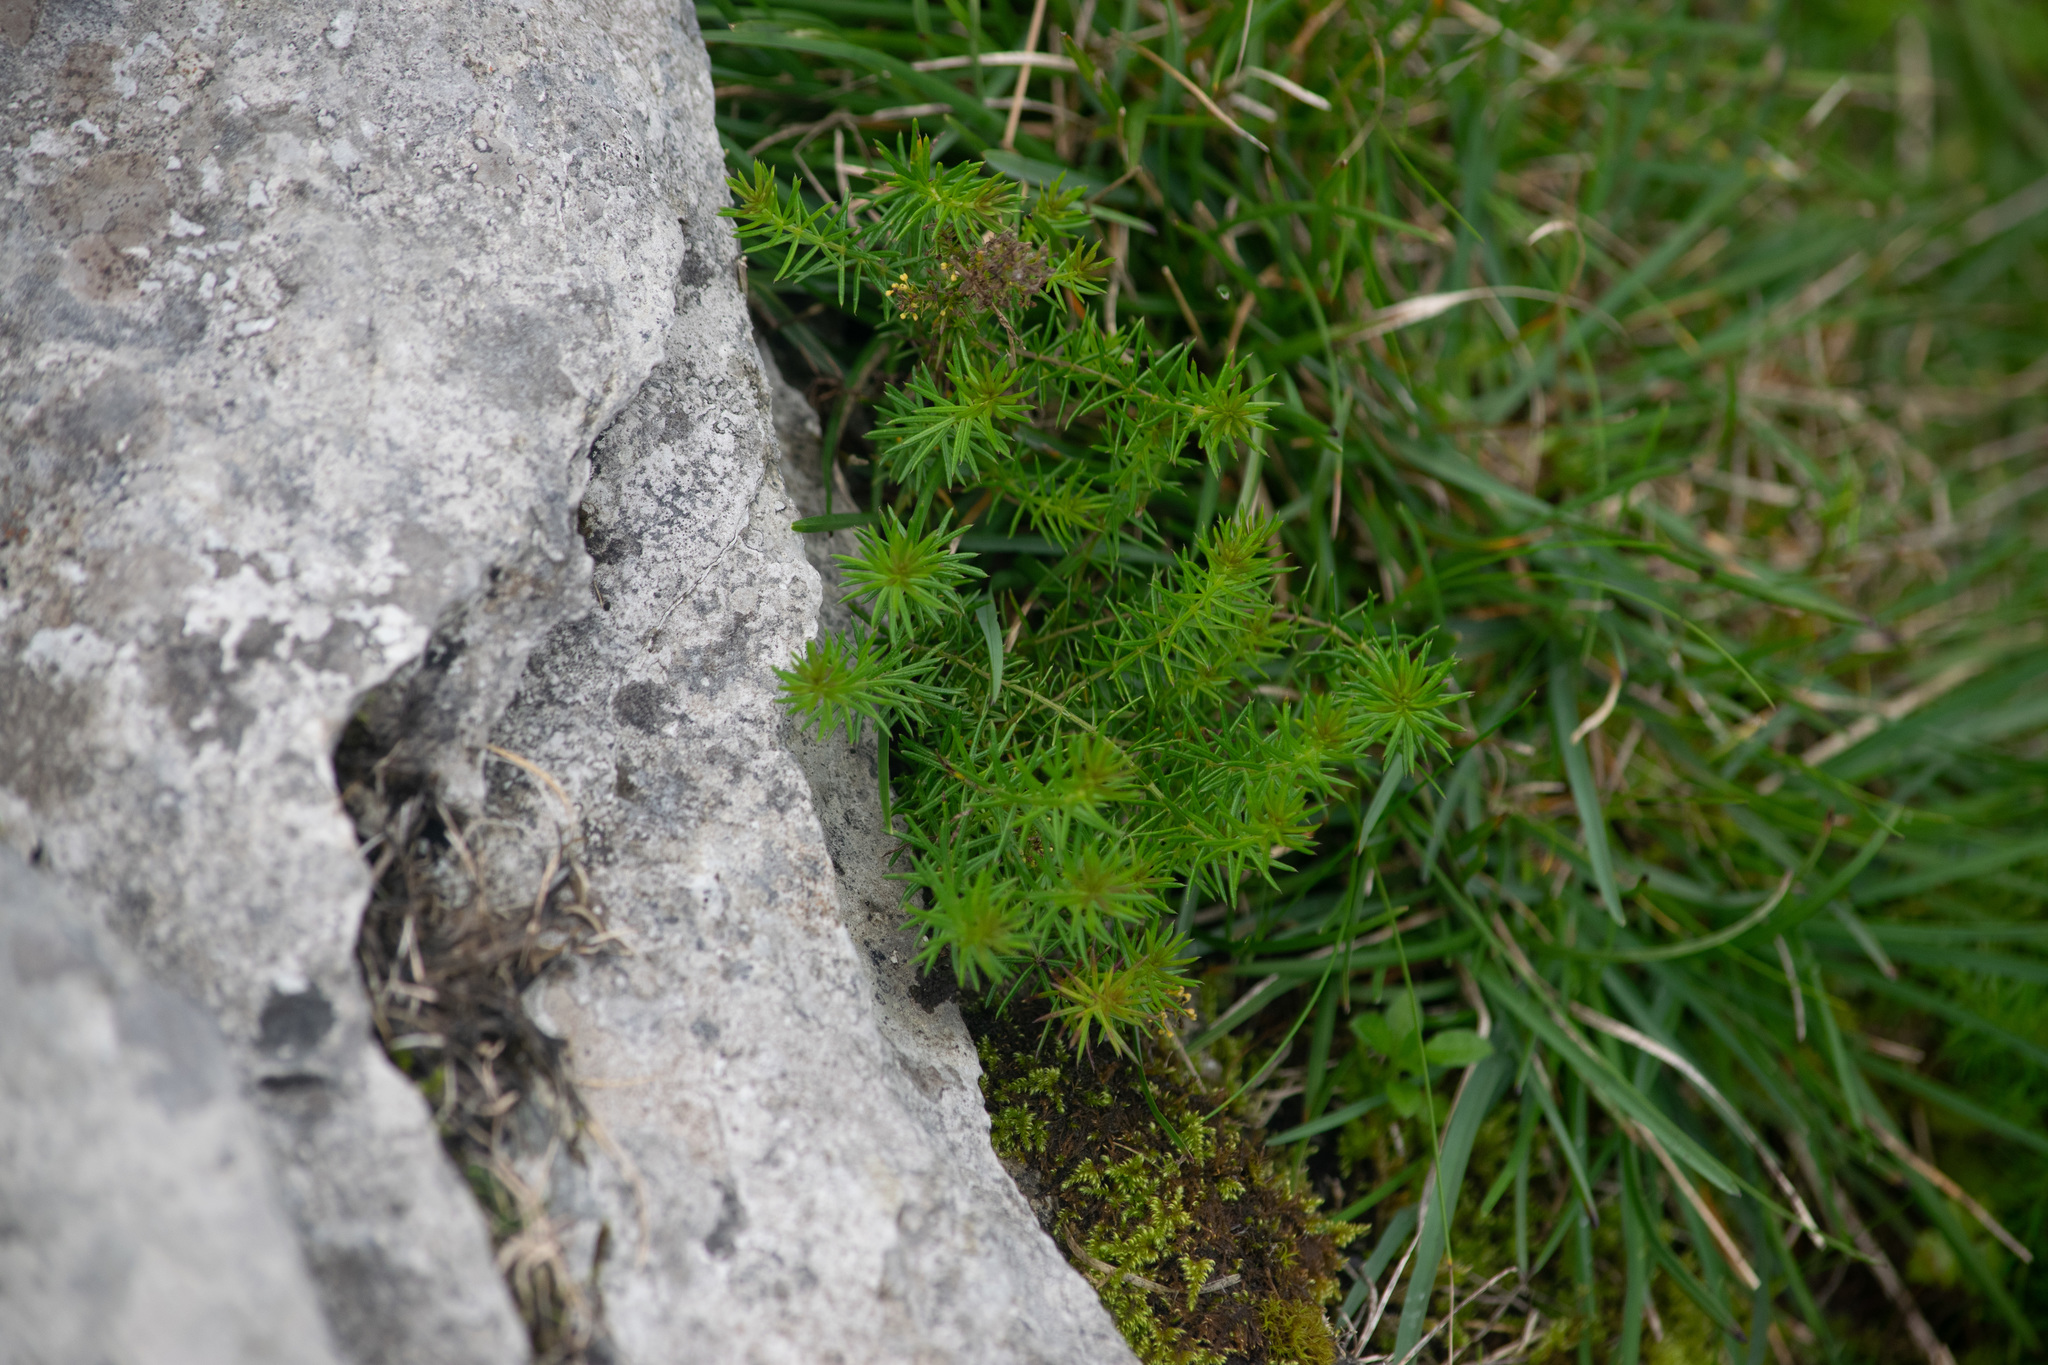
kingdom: Plantae
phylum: Tracheophyta
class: Magnoliopsida
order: Gentianales
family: Rubiaceae
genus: Galium
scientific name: Galium verum
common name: Lady's bedstraw
